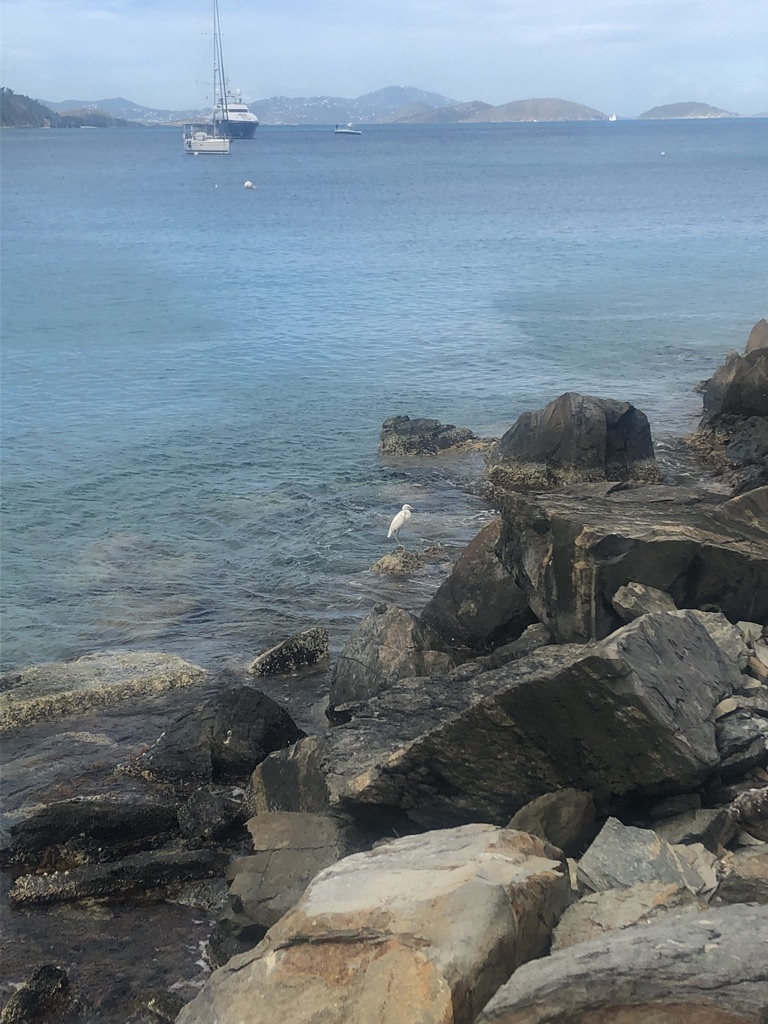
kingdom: Animalia
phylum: Chordata
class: Aves
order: Pelecaniformes
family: Ardeidae
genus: Egretta
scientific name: Egretta caerulea
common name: Little blue heron
